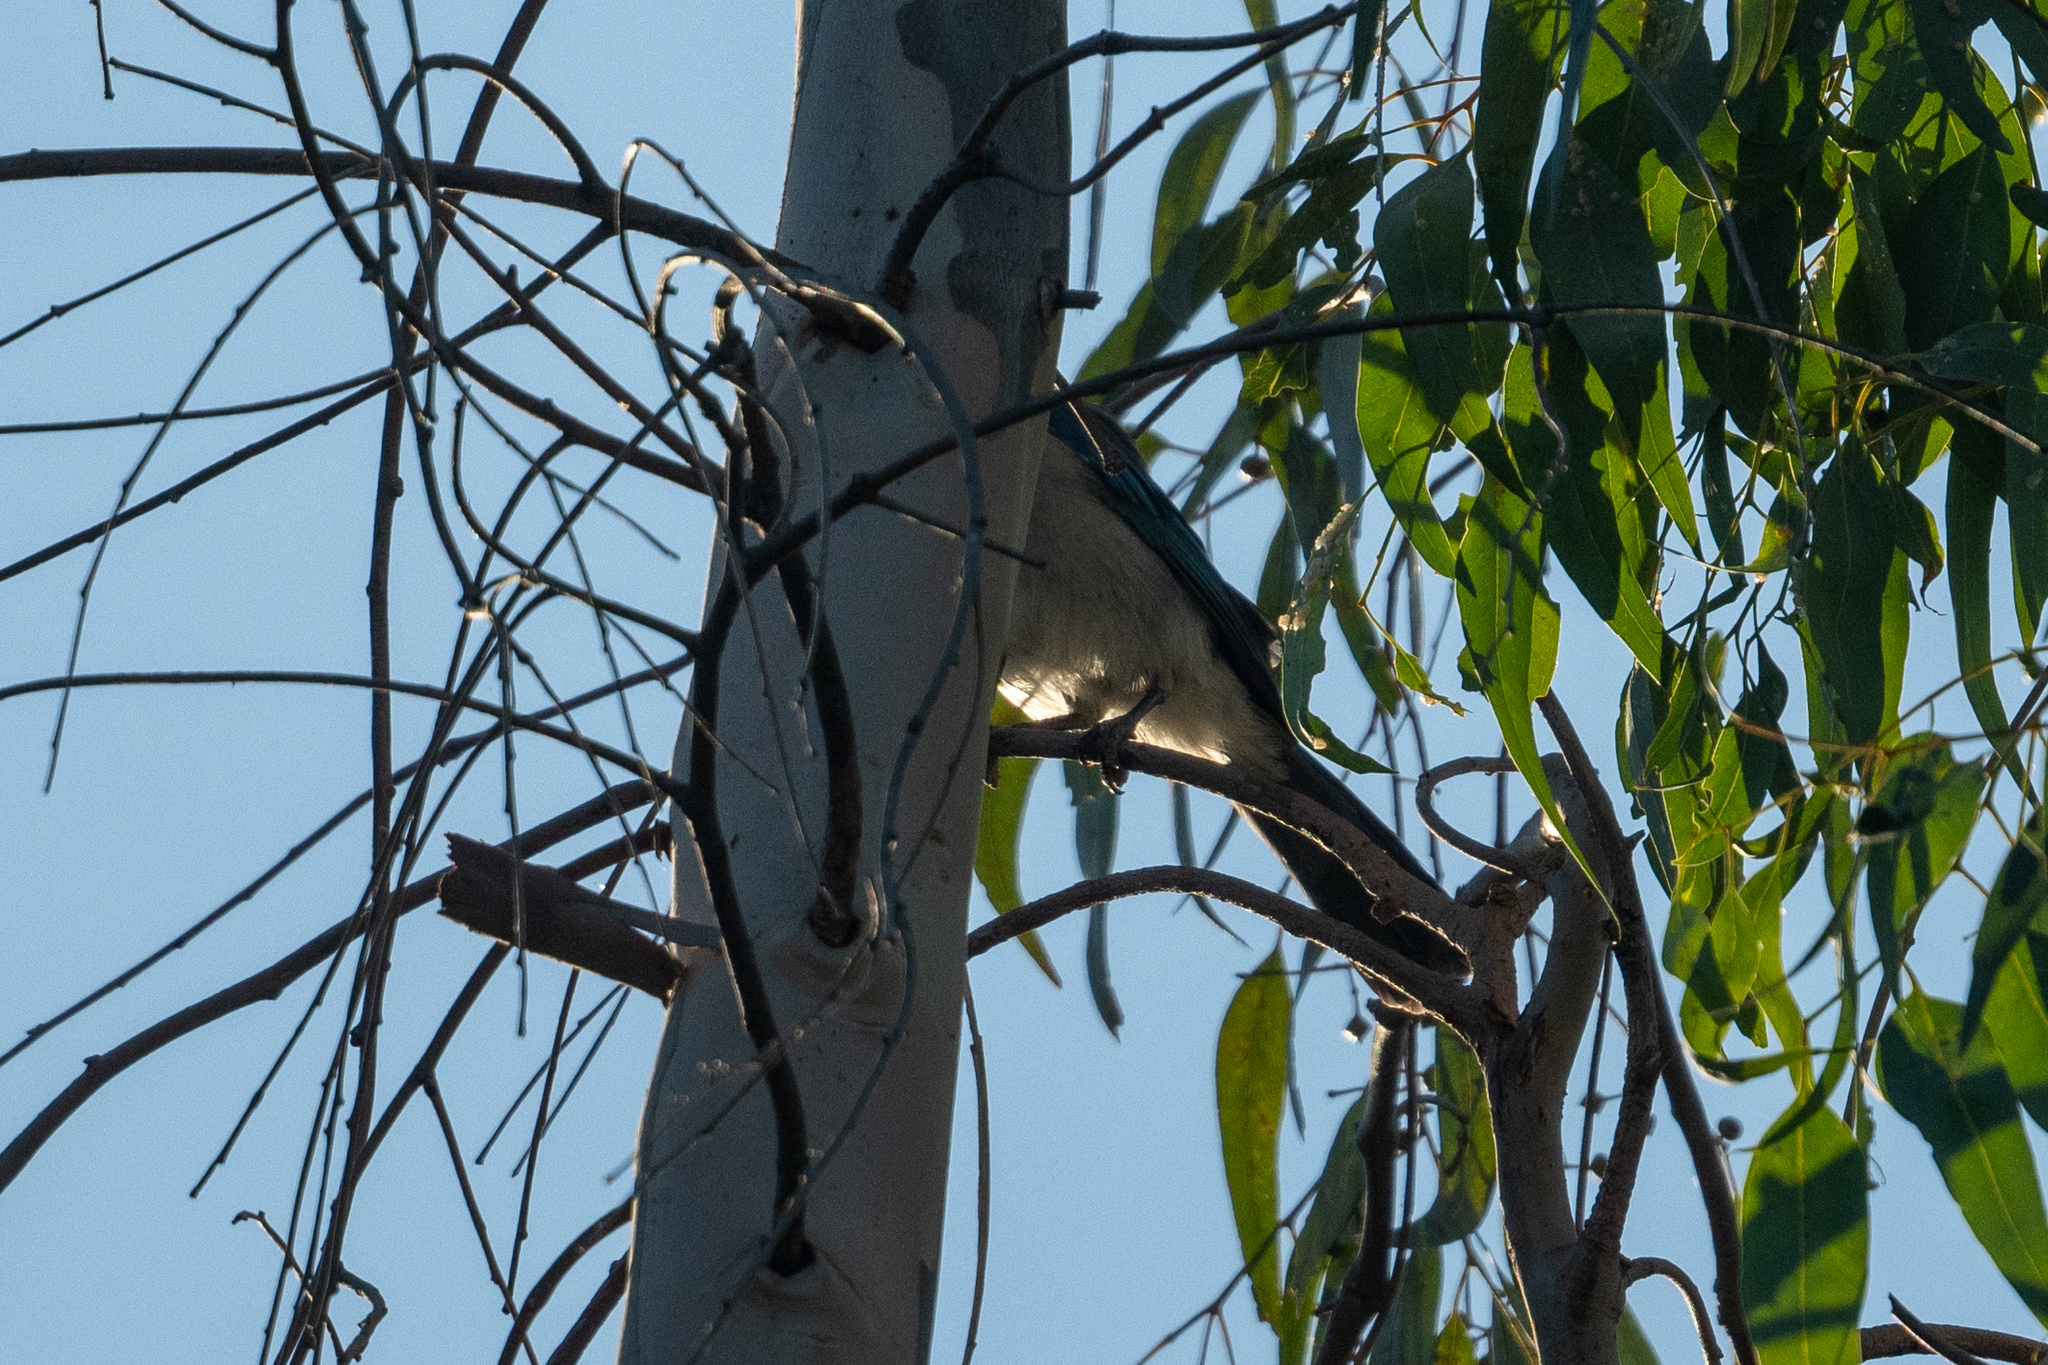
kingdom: Animalia
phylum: Chordata
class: Aves
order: Passeriformes
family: Corvidae
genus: Aphelocoma
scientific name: Aphelocoma californica
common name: California scrub-jay
